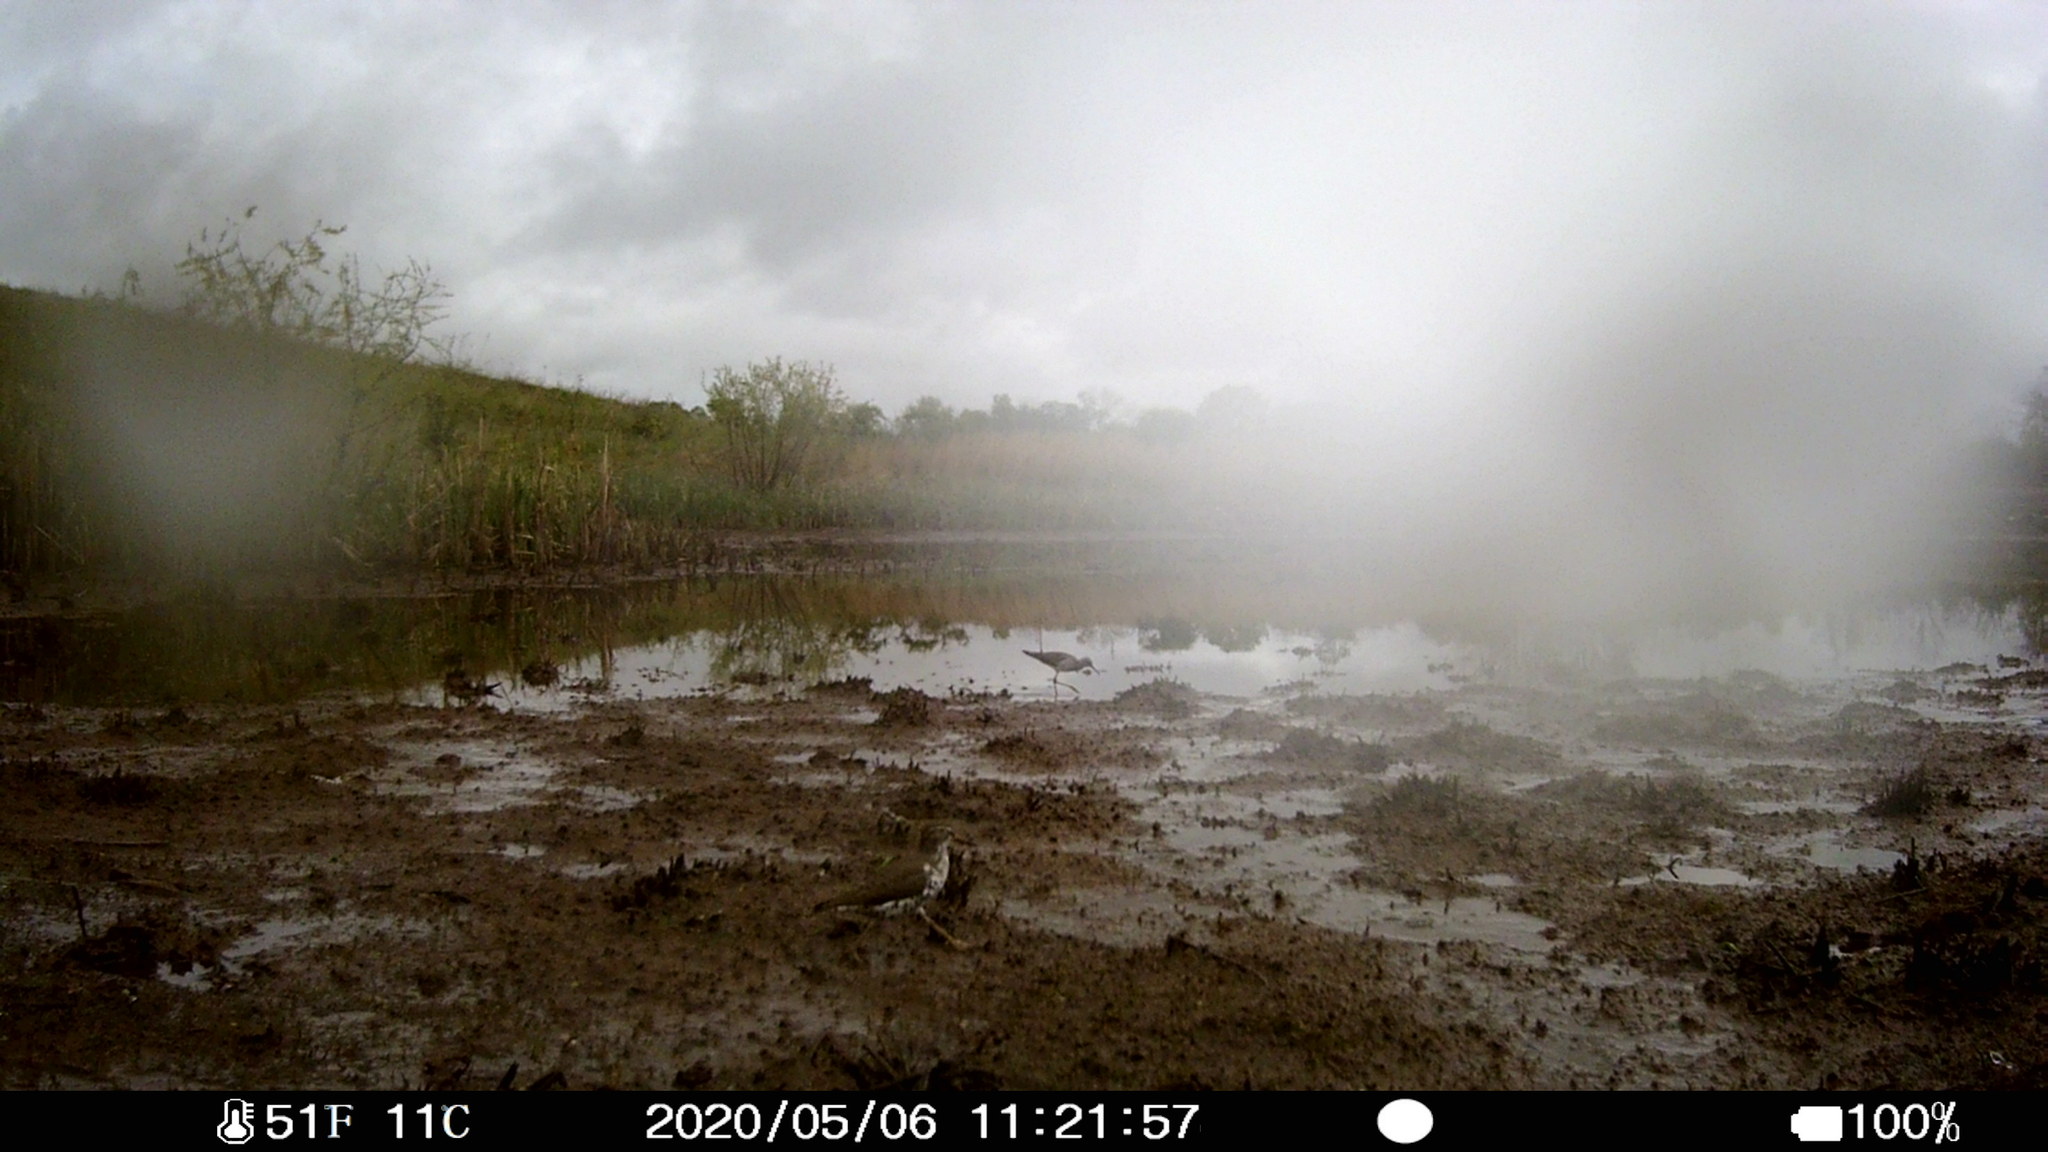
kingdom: Animalia
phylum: Chordata
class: Aves
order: Charadriiformes
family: Scolopacidae
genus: Actitis
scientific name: Actitis macularius
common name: Spotted sandpiper
